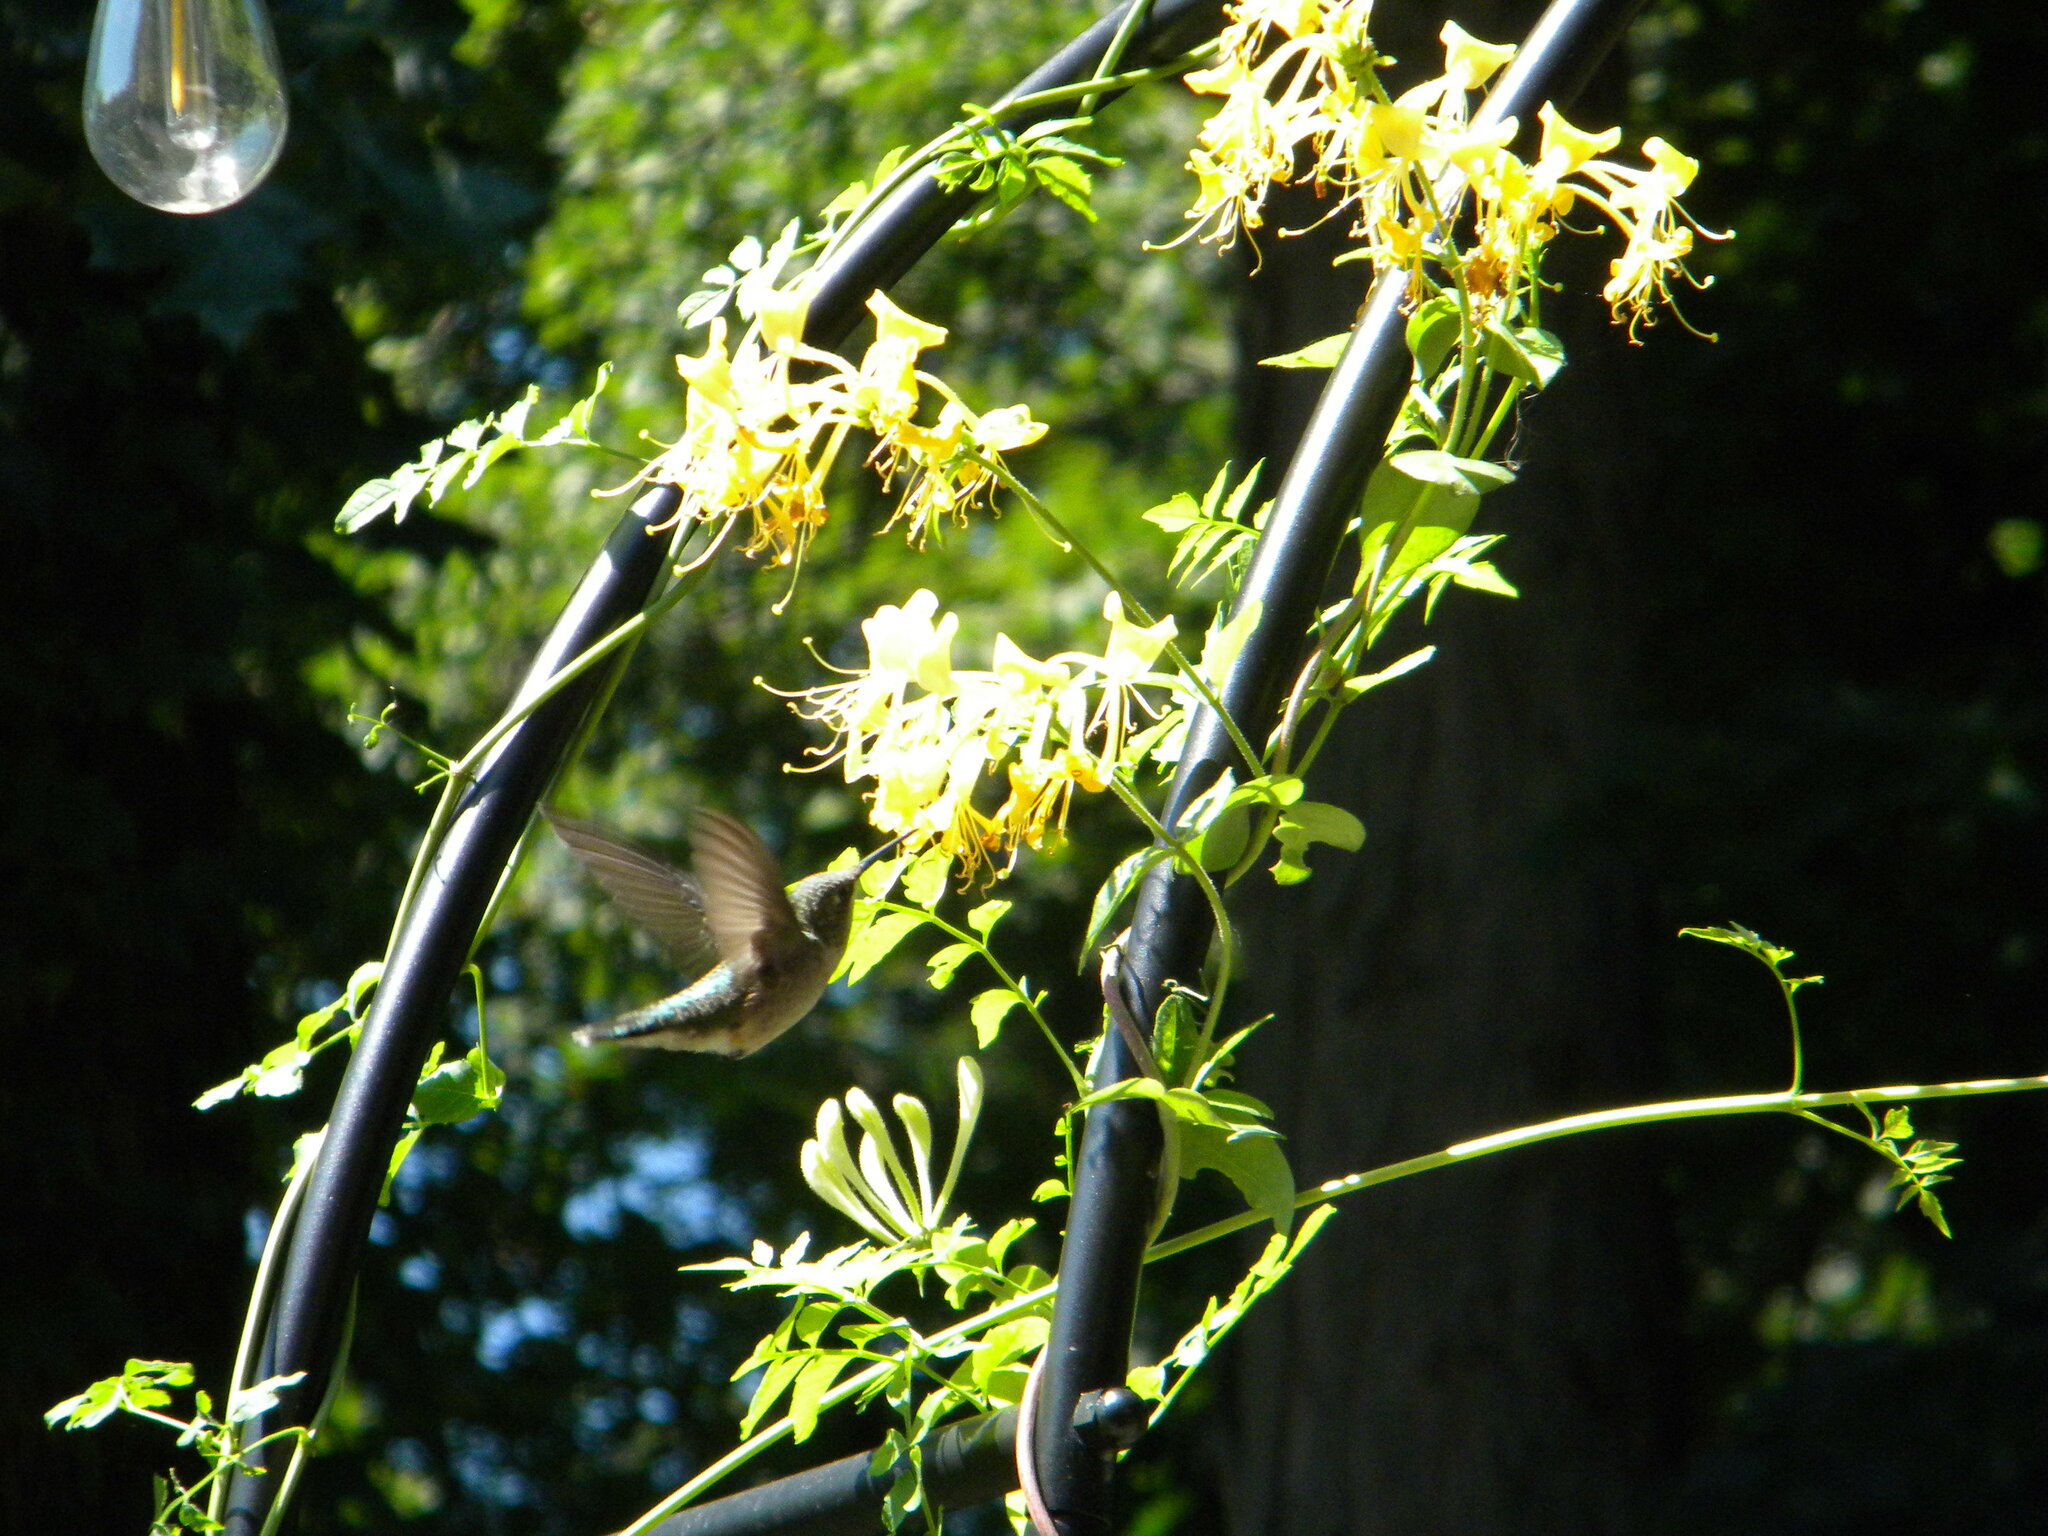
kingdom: Animalia
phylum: Chordata
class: Aves
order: Apodiformes
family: Trochilidae
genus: Archilochus
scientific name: Archilochus colubris
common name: Ruby-throated hummingbird
